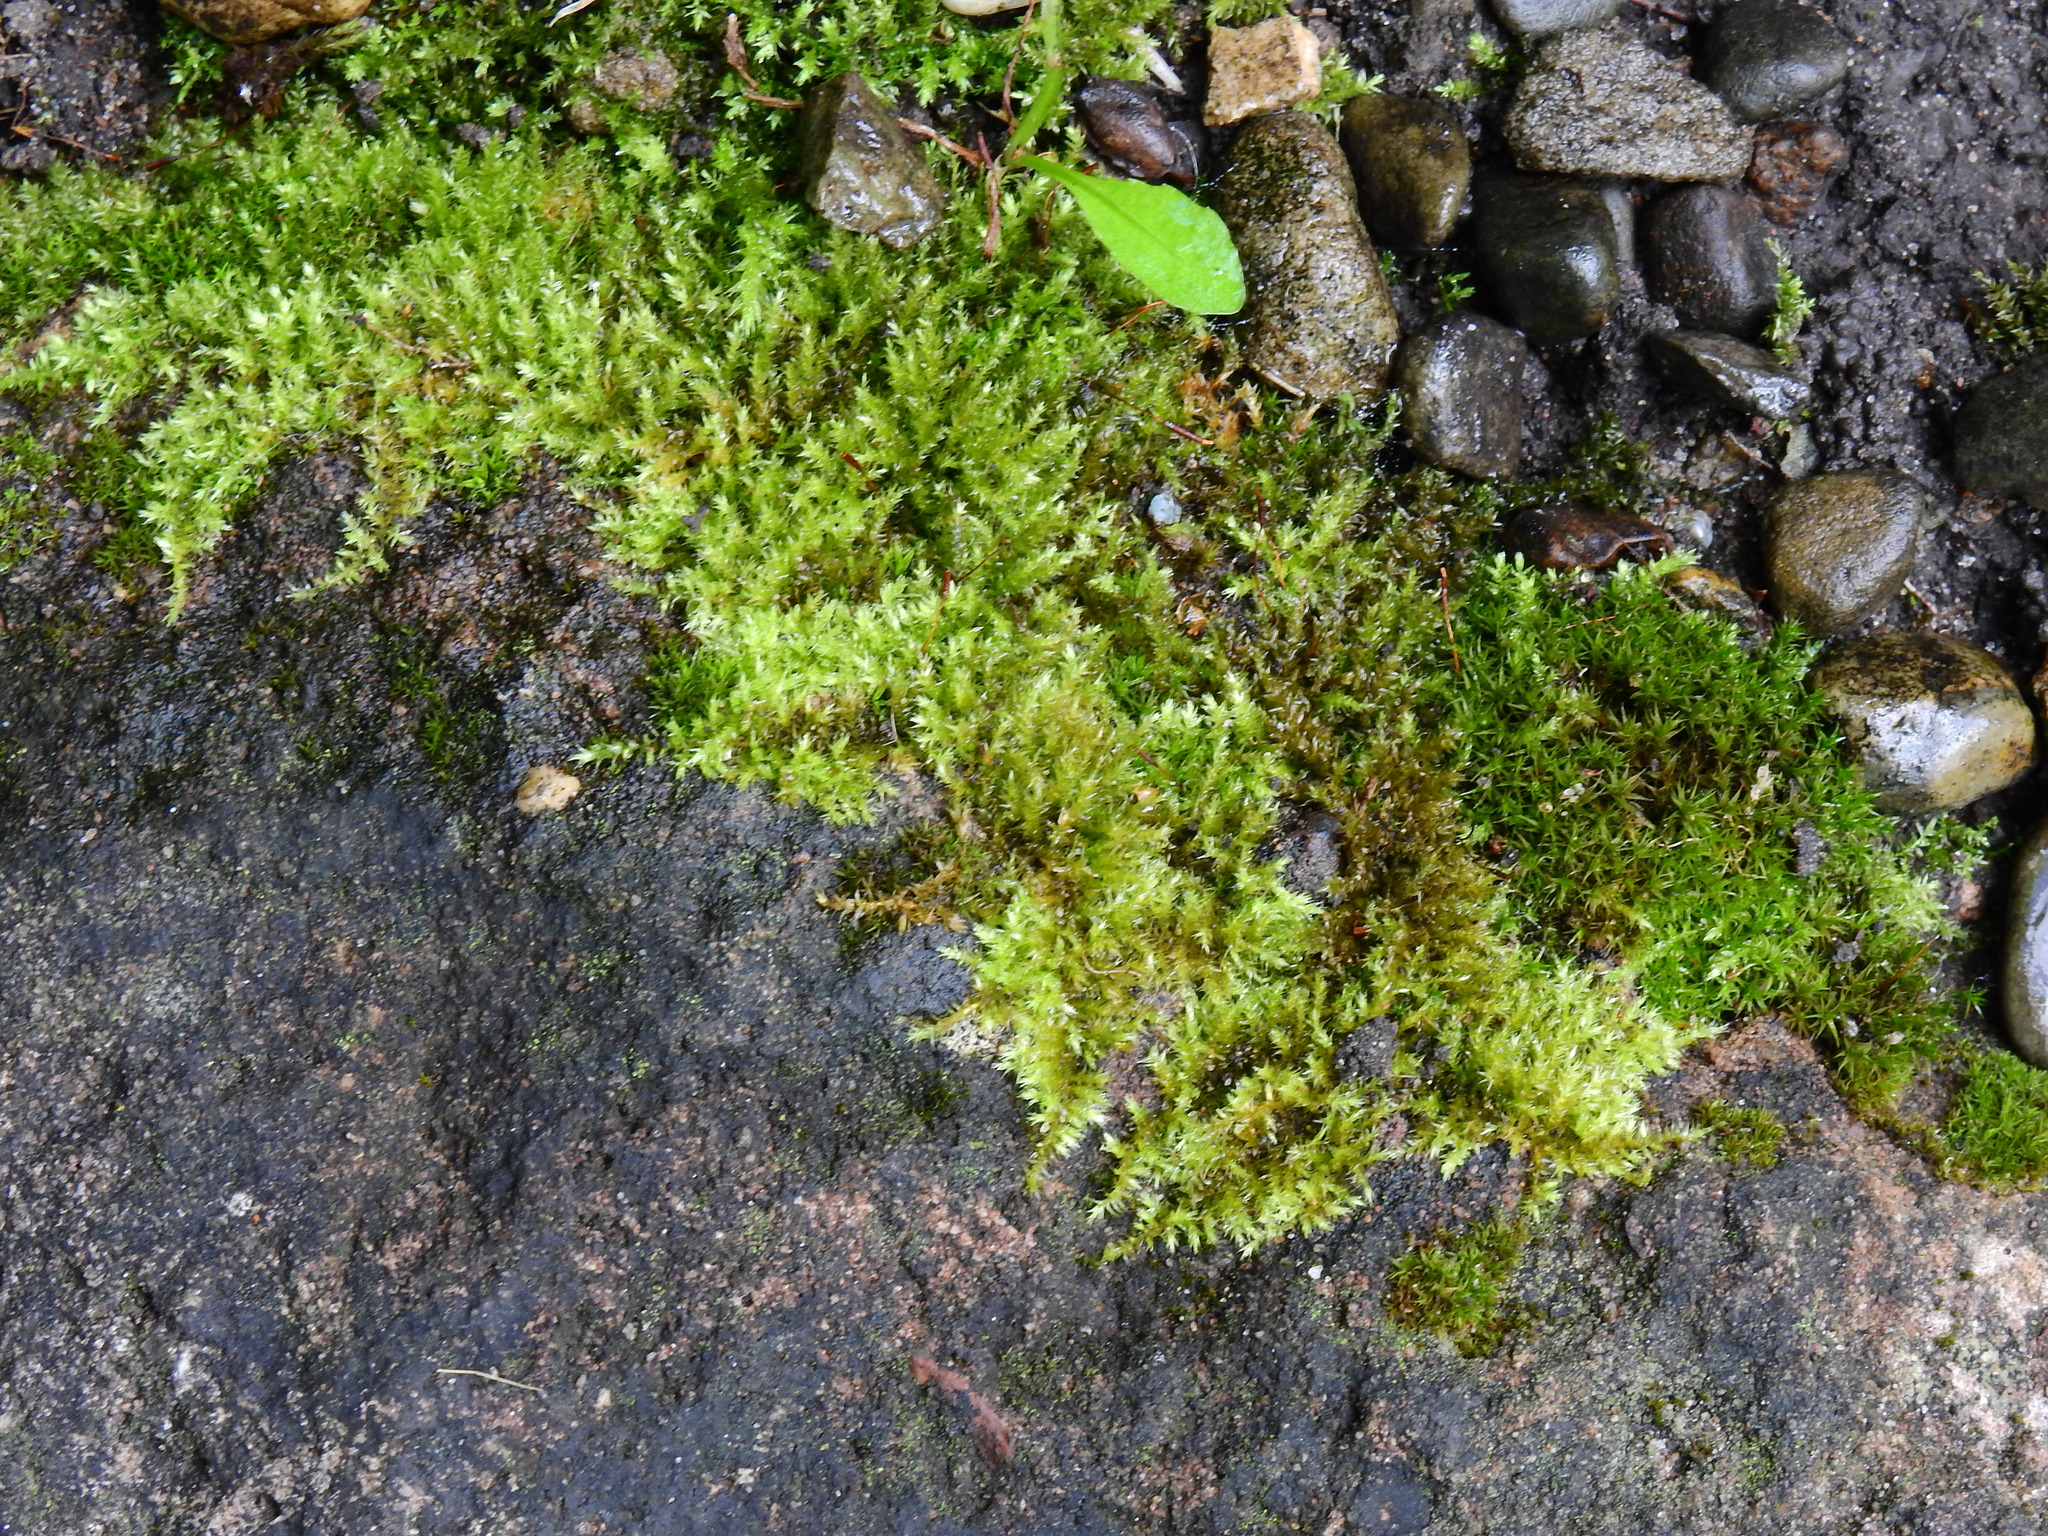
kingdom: Plantae
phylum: Bryophyta
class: Bryopsida
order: Hypnales
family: Brachytheciaceae
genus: Homalothecium
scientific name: Homalothecium sericeum
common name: Silky wall feather-moss
